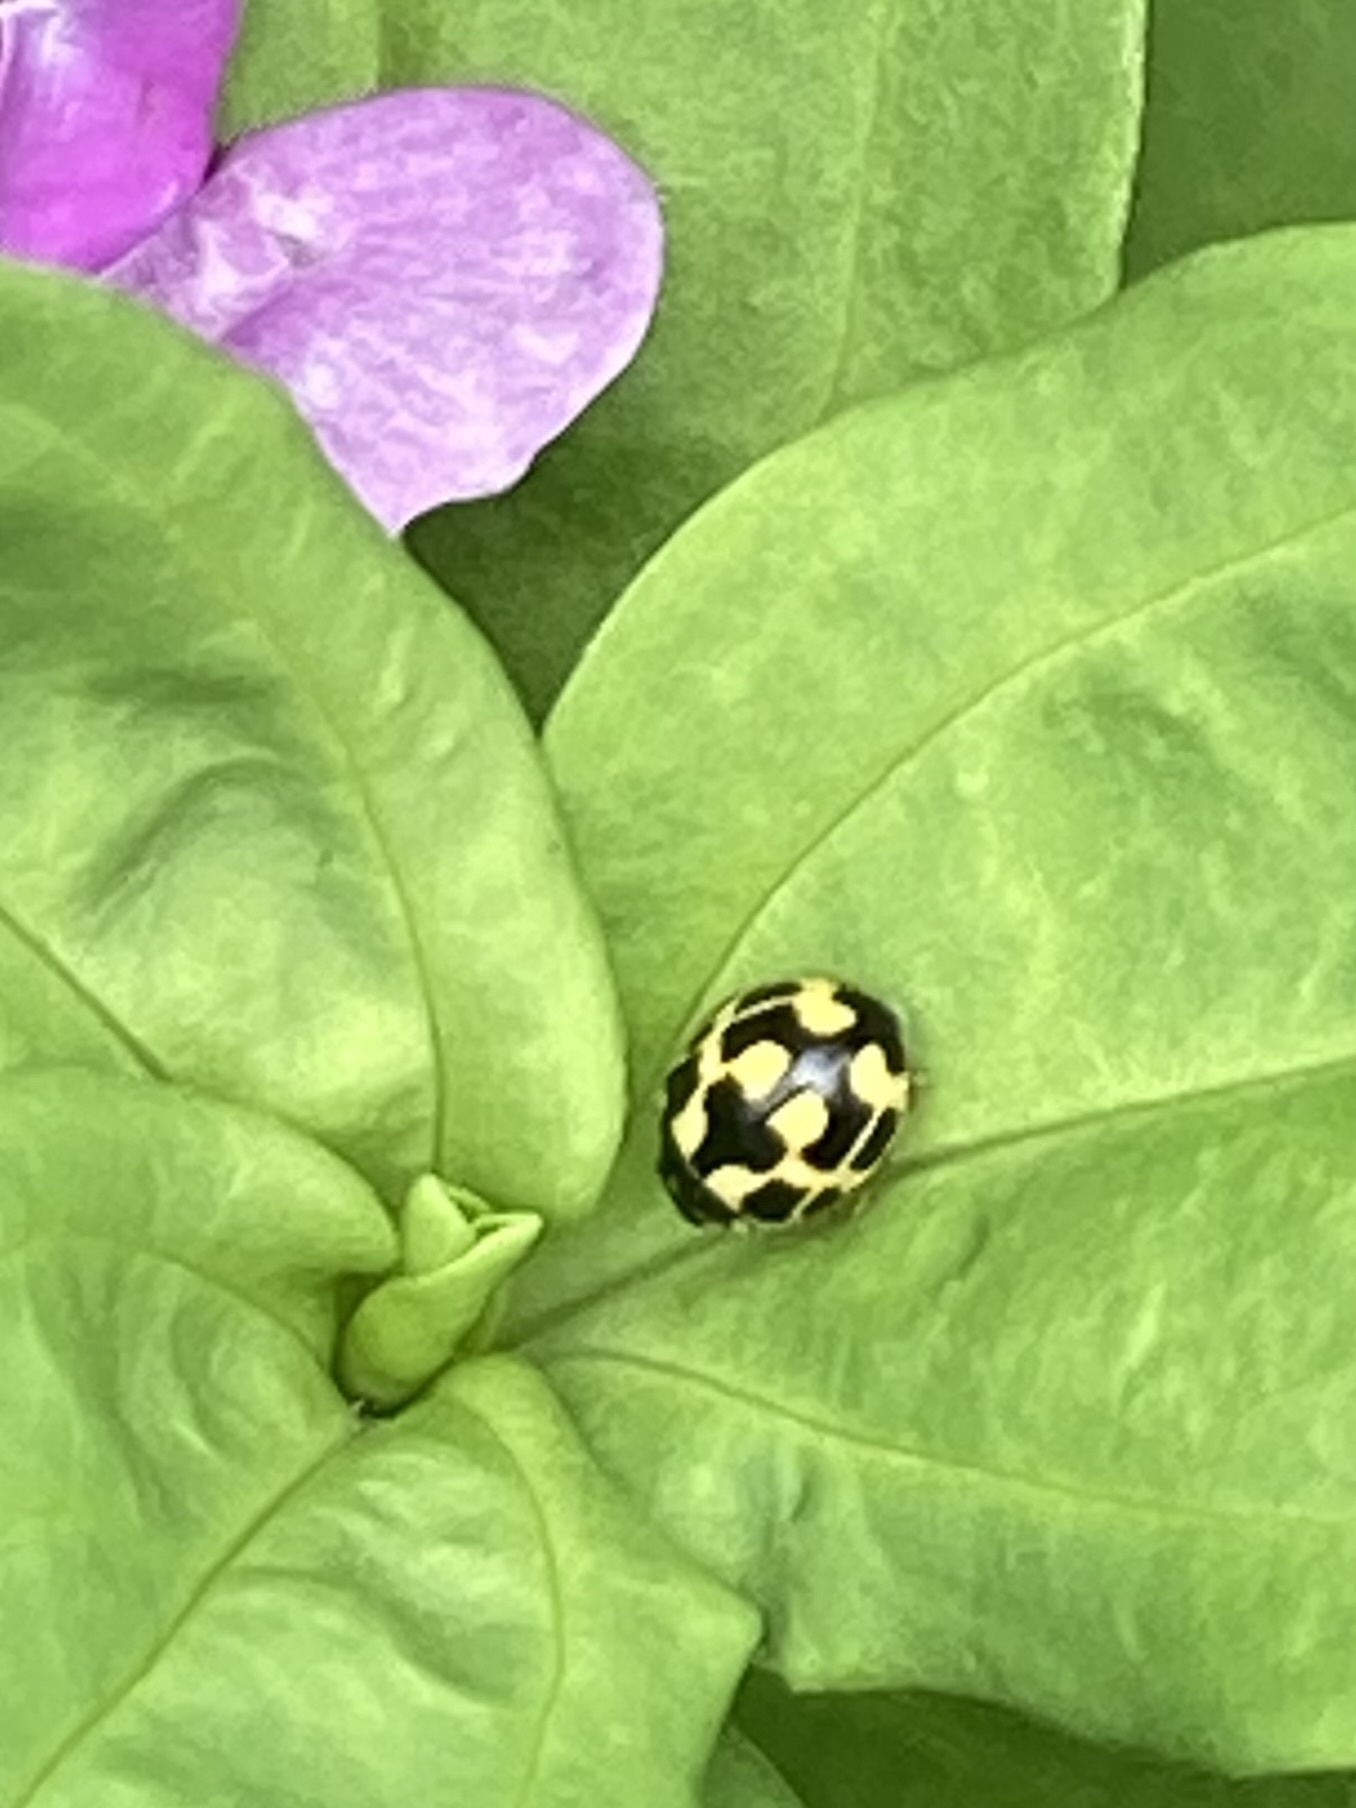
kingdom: Animalia
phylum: Arthropoda
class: Insecta
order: Coleoptera
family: Coccinellidae
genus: Propylaea
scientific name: Propylaea quatuordecimpunctata
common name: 14-spotted ladybird beetle
